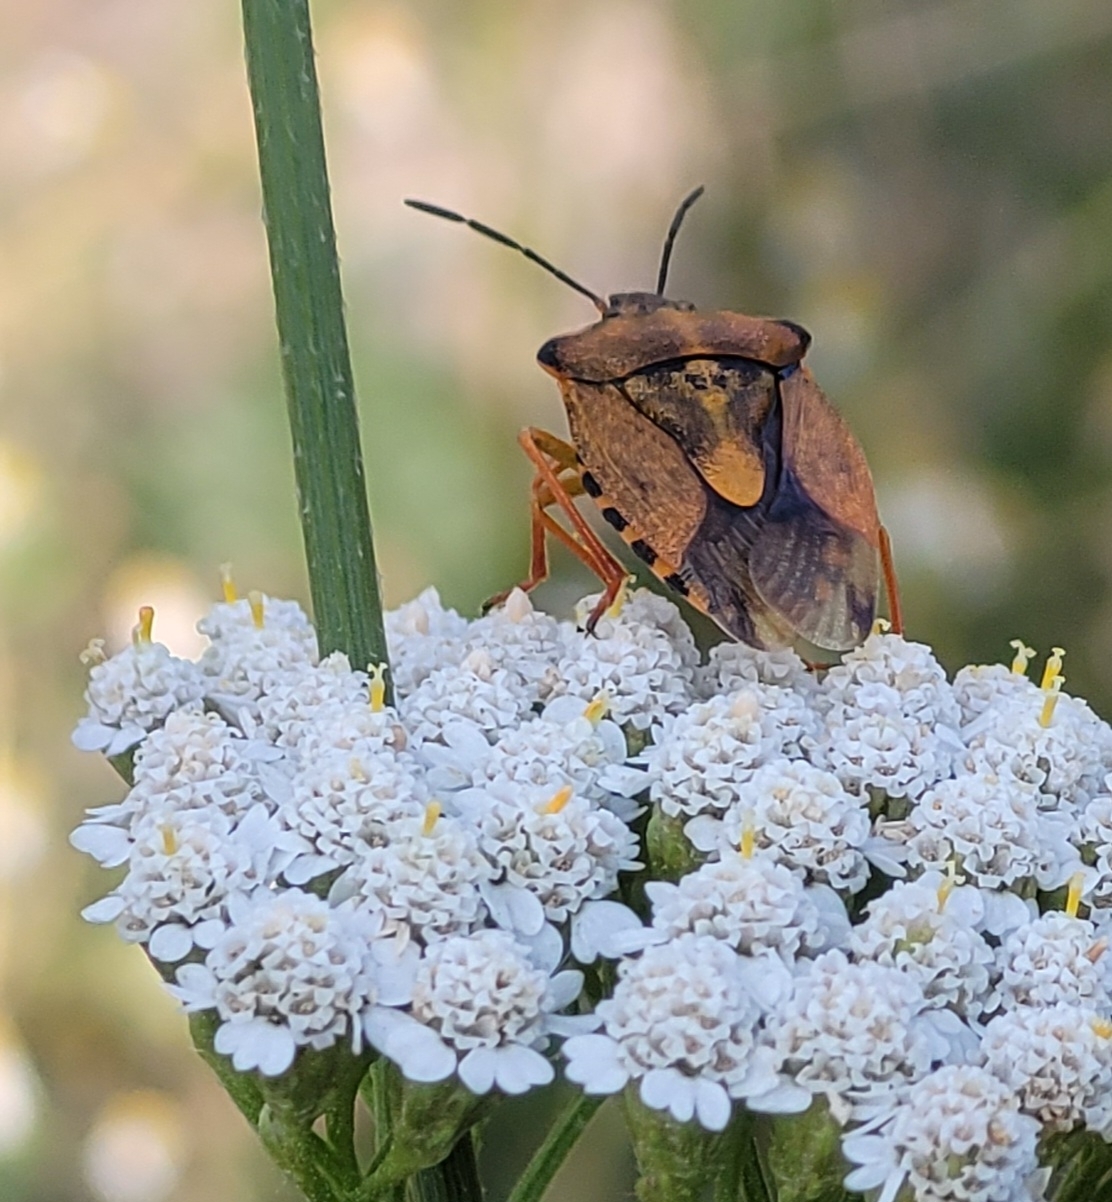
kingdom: Animalia
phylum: Arthropoda
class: Insecta
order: Hemiptera
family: Pentatomidae
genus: Carpocoris
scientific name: Carpocoris purpureipennis
